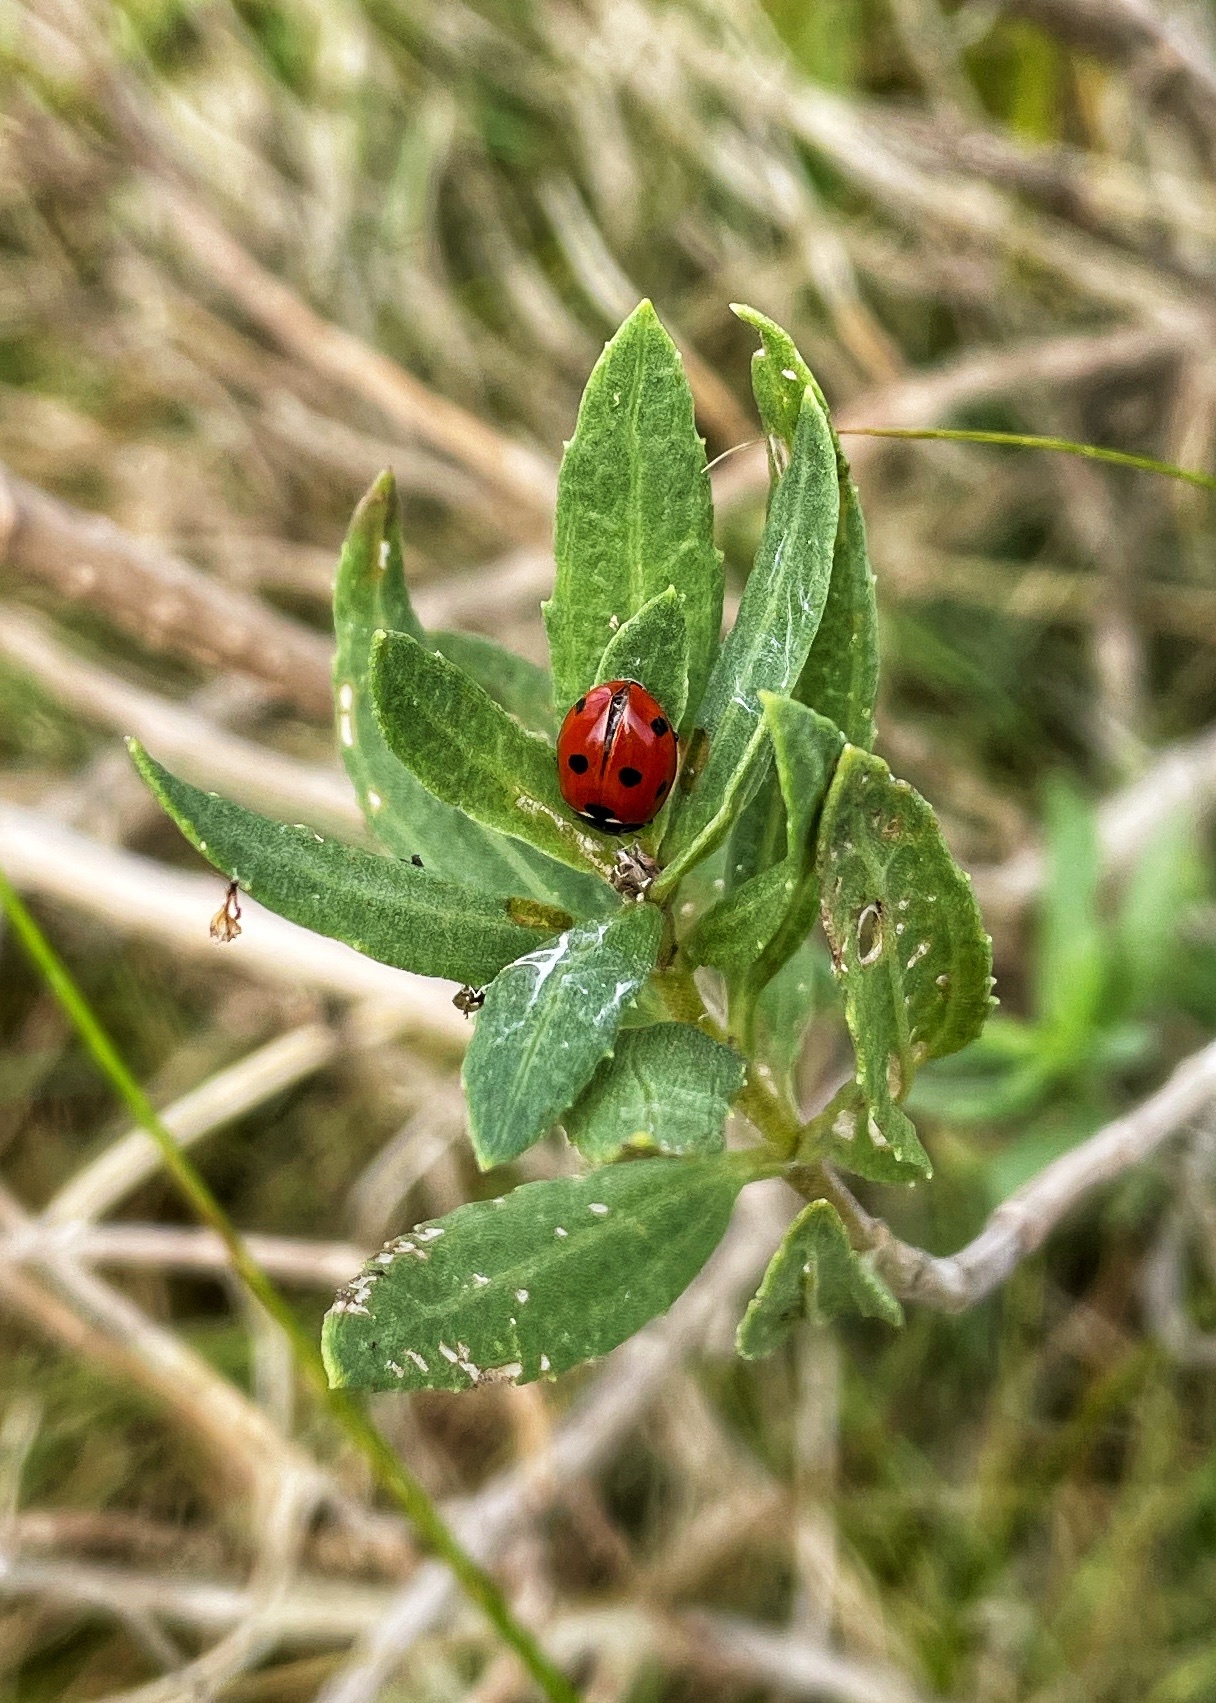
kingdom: Animalia
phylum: Arthropoda
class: Insecta
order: Coleoptera
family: Coccinellidae
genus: Coccinella
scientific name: Coccinella septempunctata
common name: Sevenspotted lady beetle
